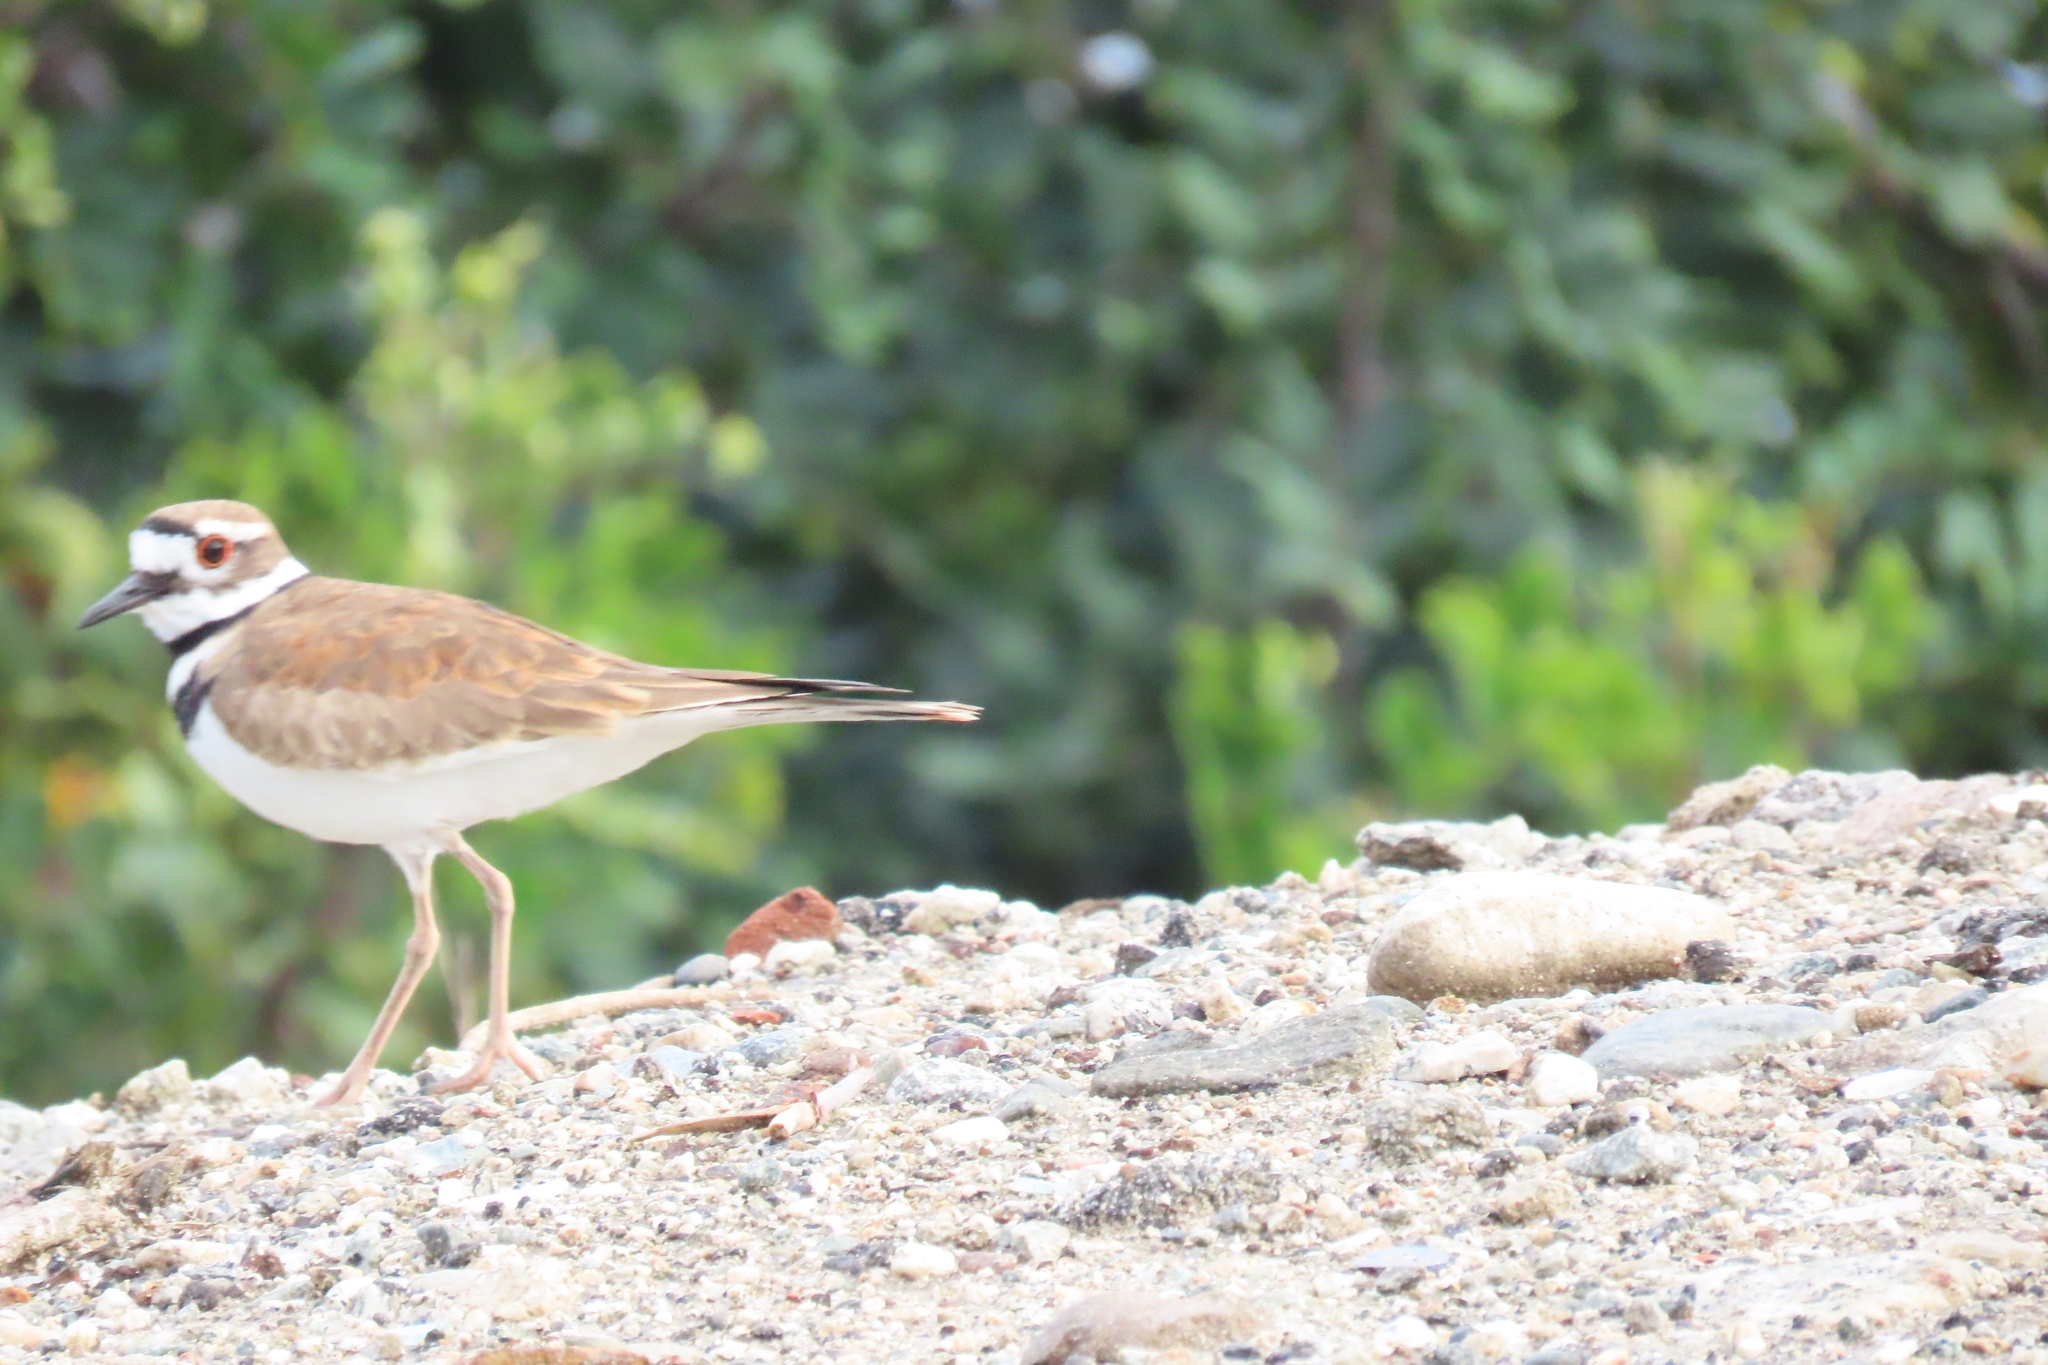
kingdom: Animalia
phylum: Chordata
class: Aves
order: Charadriiformes
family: Charadriidae
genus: Charadrius
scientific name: Charadrius vociferus
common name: Killdeer
